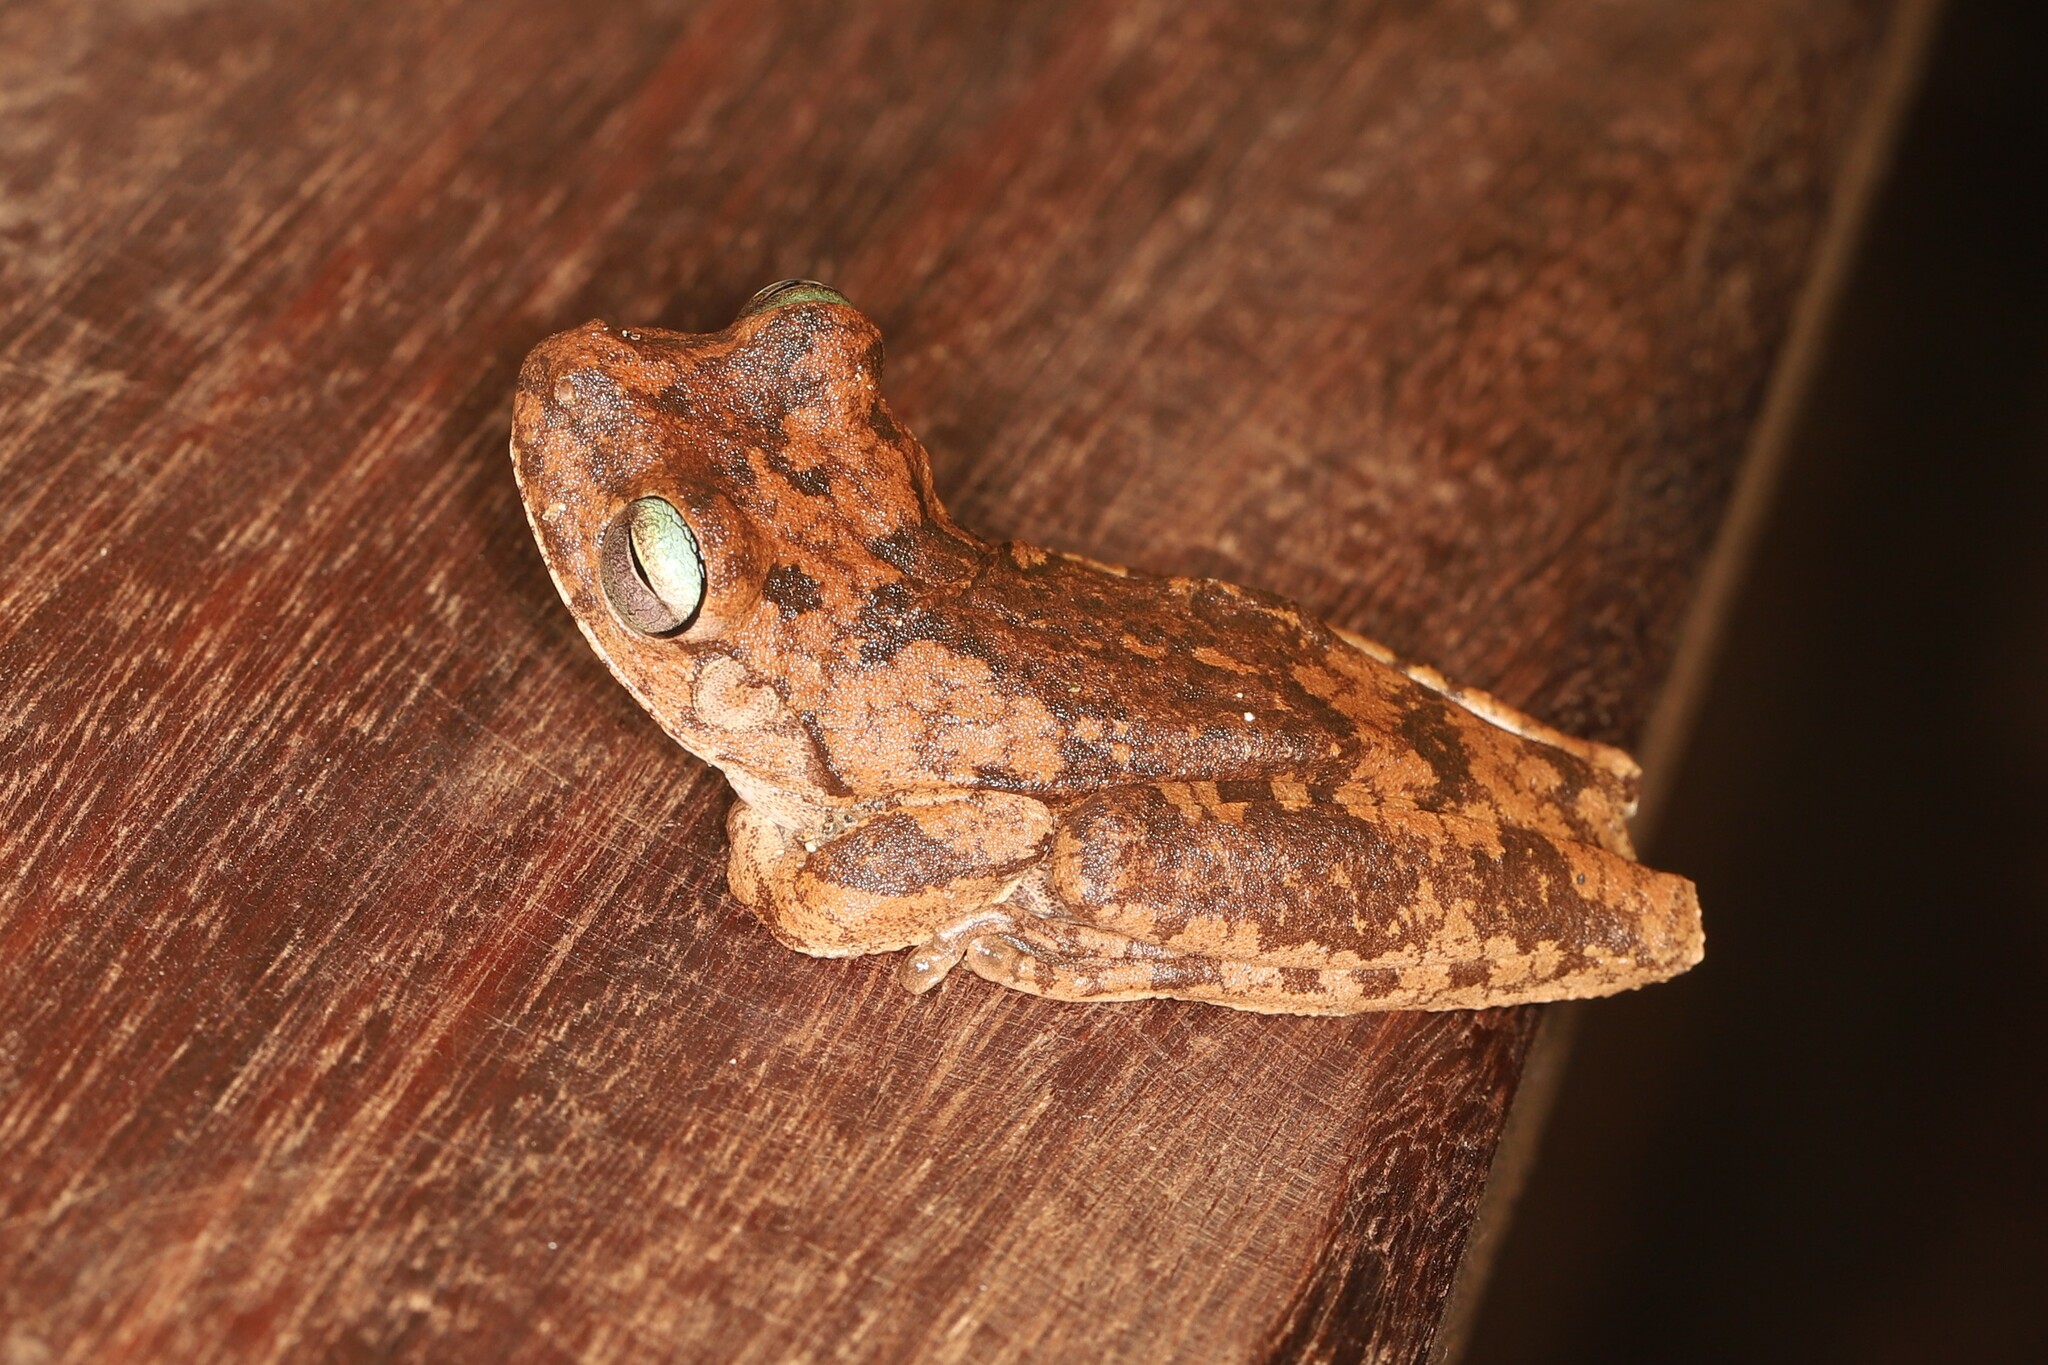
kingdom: Animalia
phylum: Chordata
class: Amphibia
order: Anura
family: Hylidae
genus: Boana
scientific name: Boana pugnax
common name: Chirique-flusse treefrog
